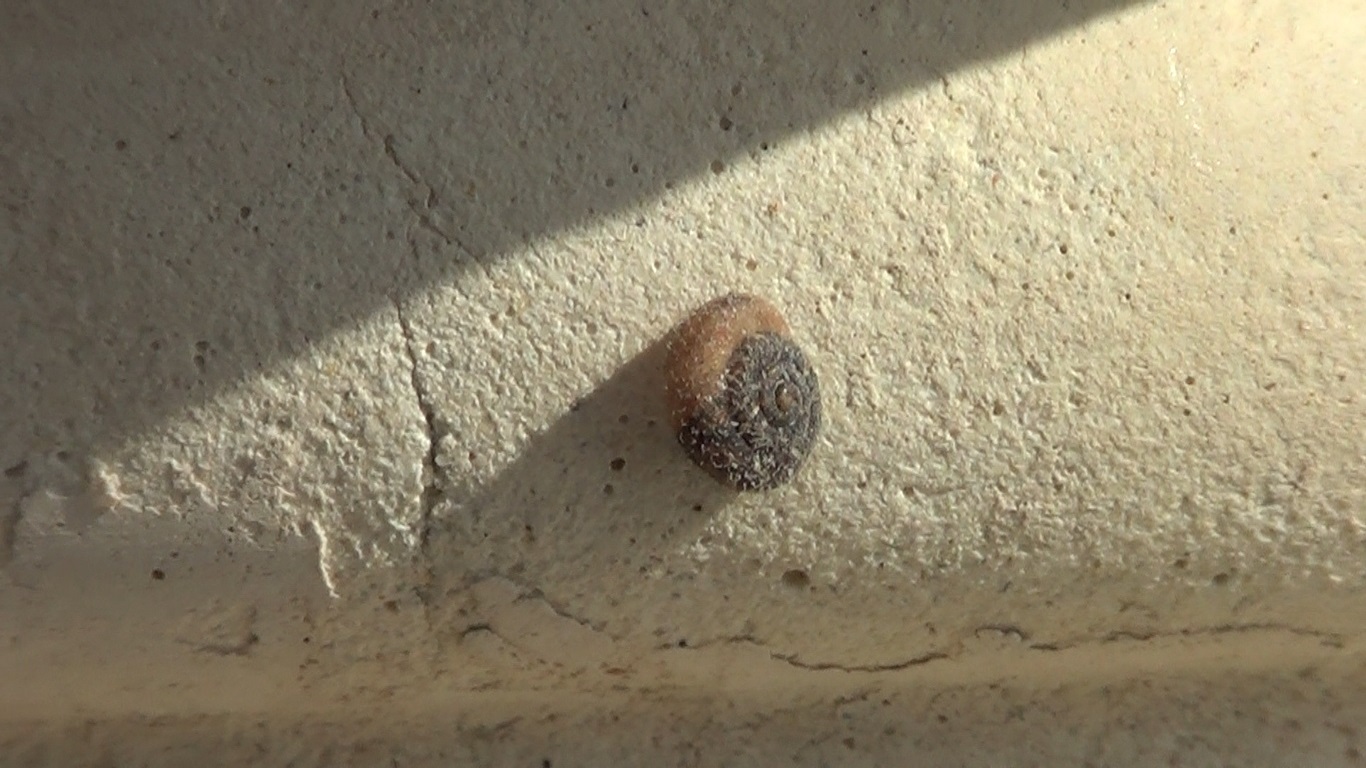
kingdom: Animalia
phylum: Mollusca
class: Gastropoda
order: Stylommatophora
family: Geomitridae
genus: Xerotricha
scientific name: Xerotricha conspurcata
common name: Snail
